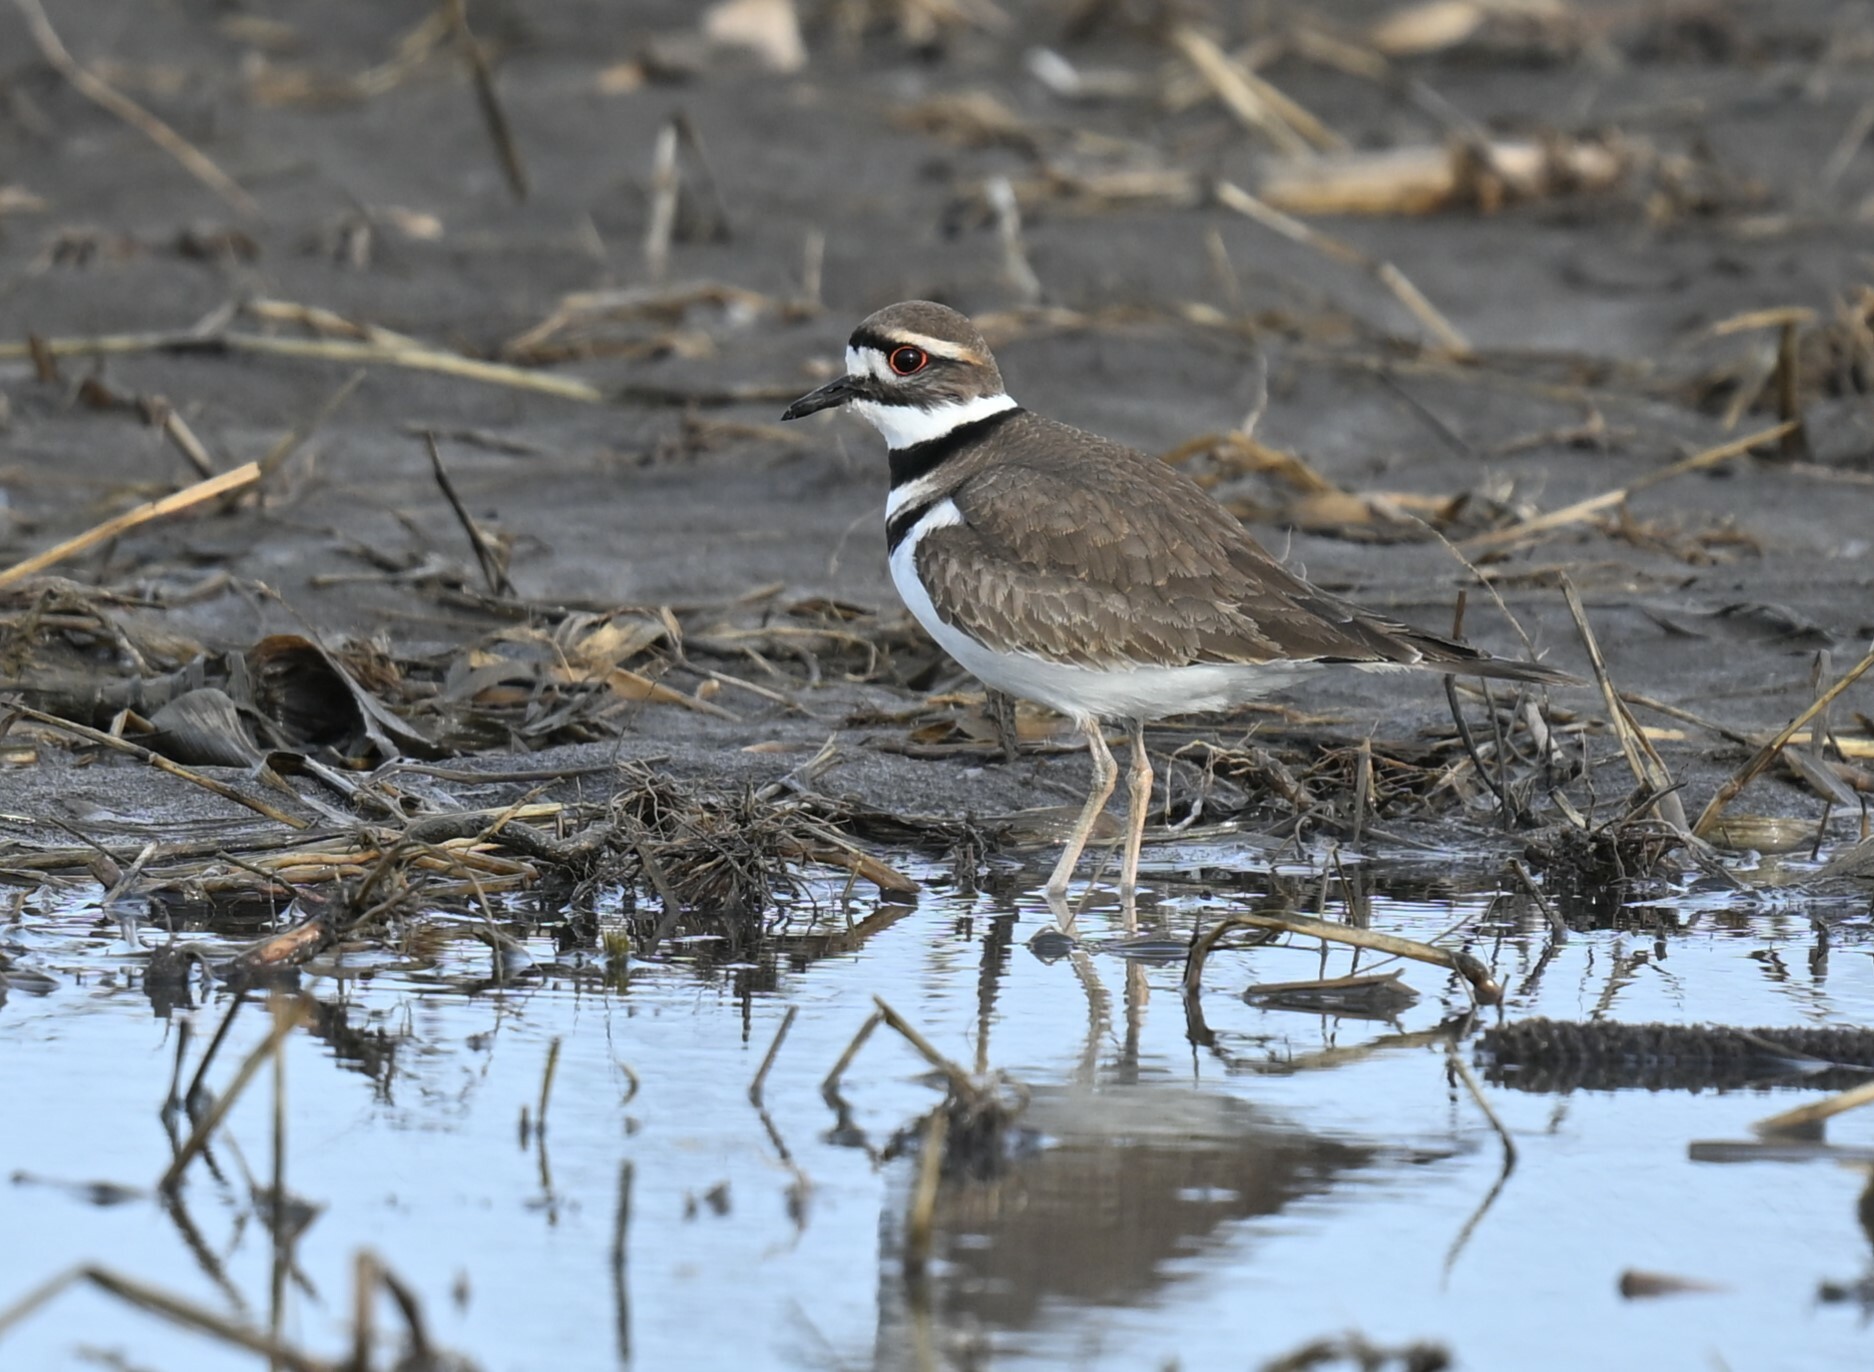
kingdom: Animalia
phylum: Chordata
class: Aves
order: Charadriiformes
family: Charadriidae
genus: Charadrius
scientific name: Charadrius vociferus
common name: Killdeer
